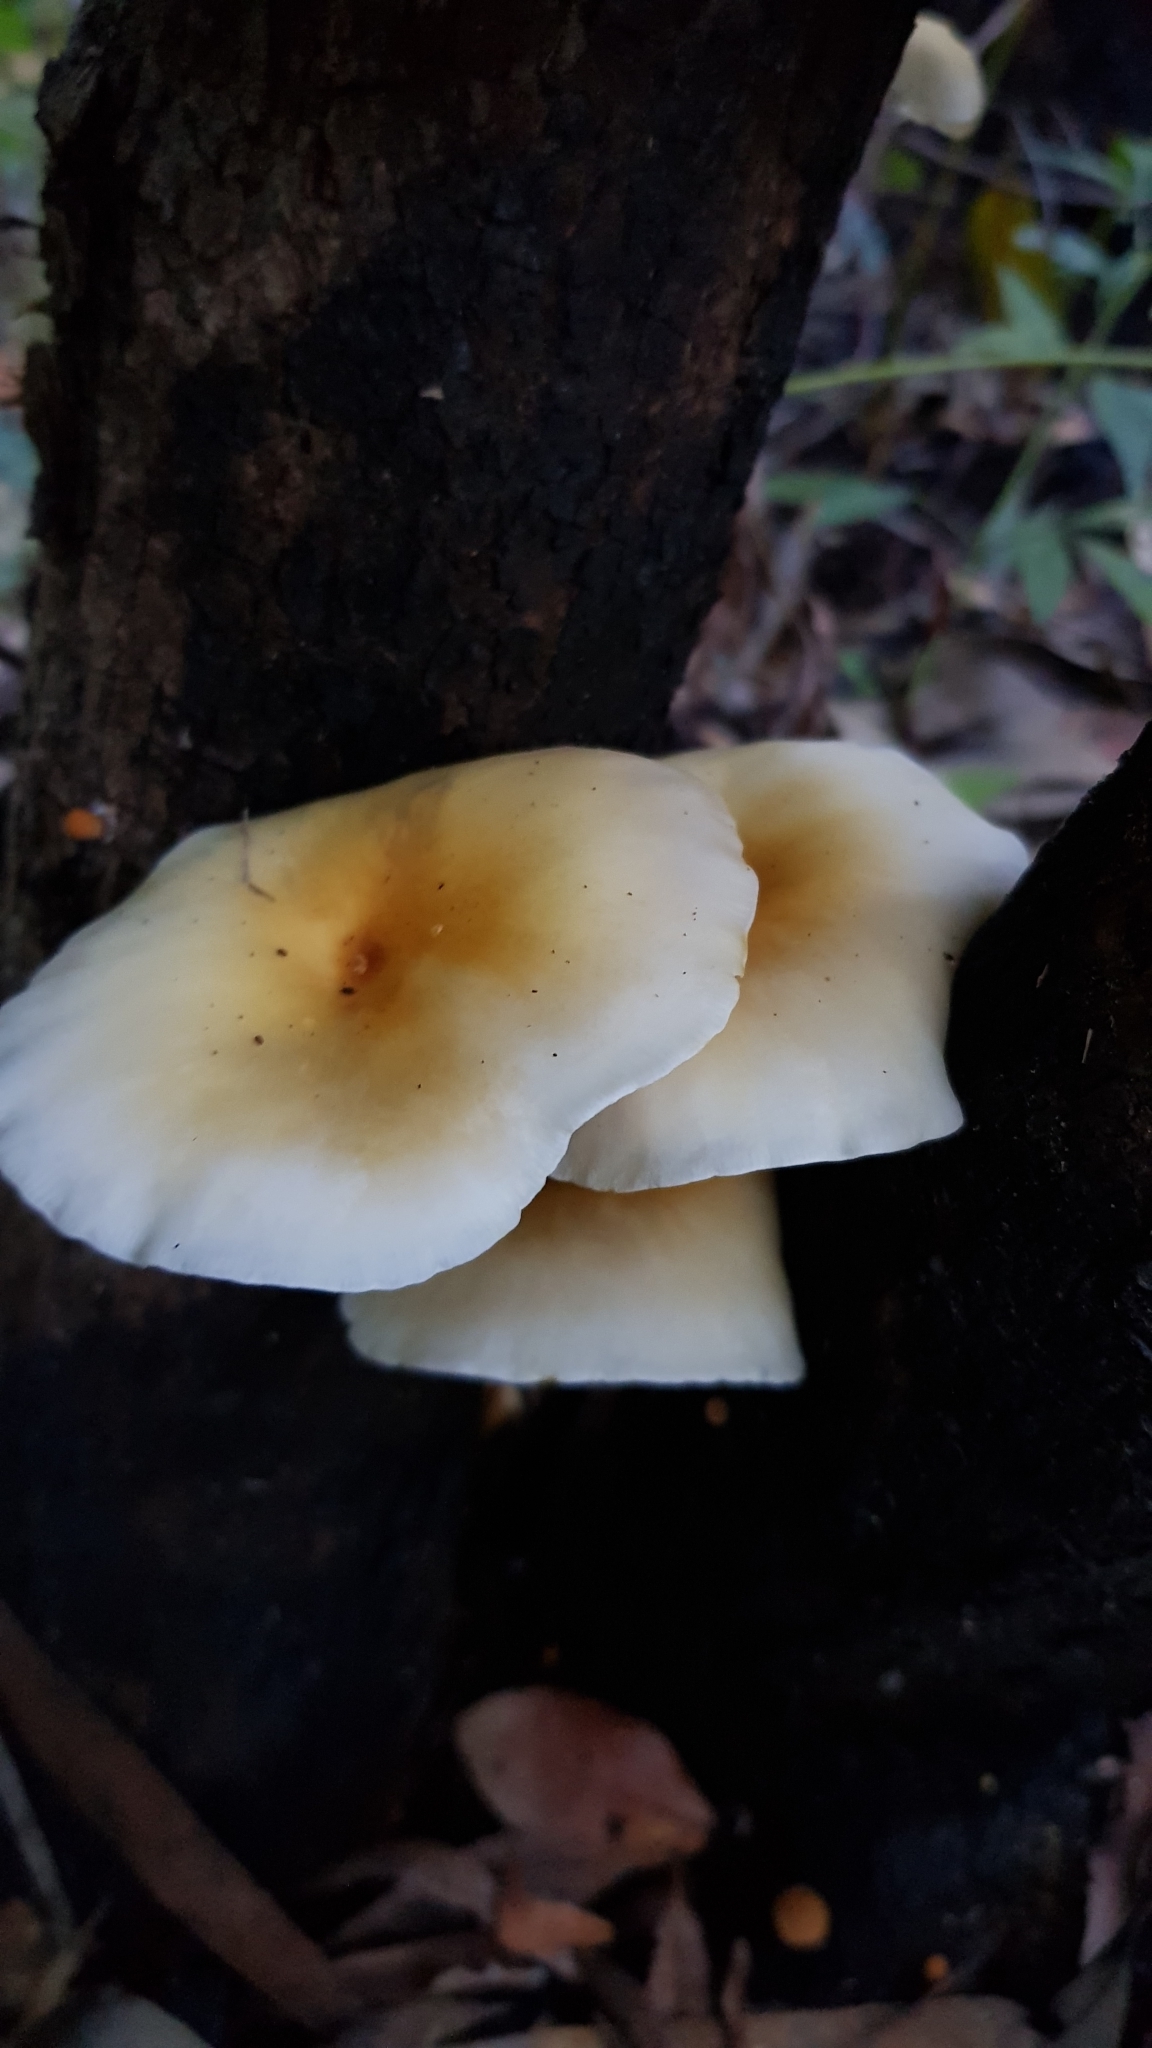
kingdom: Fungi
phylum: Basidiomycota
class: Agaricomycetes
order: Agaricales
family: Omphalotaceae
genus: Omphalotus
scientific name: Omphalotus nidiformis
